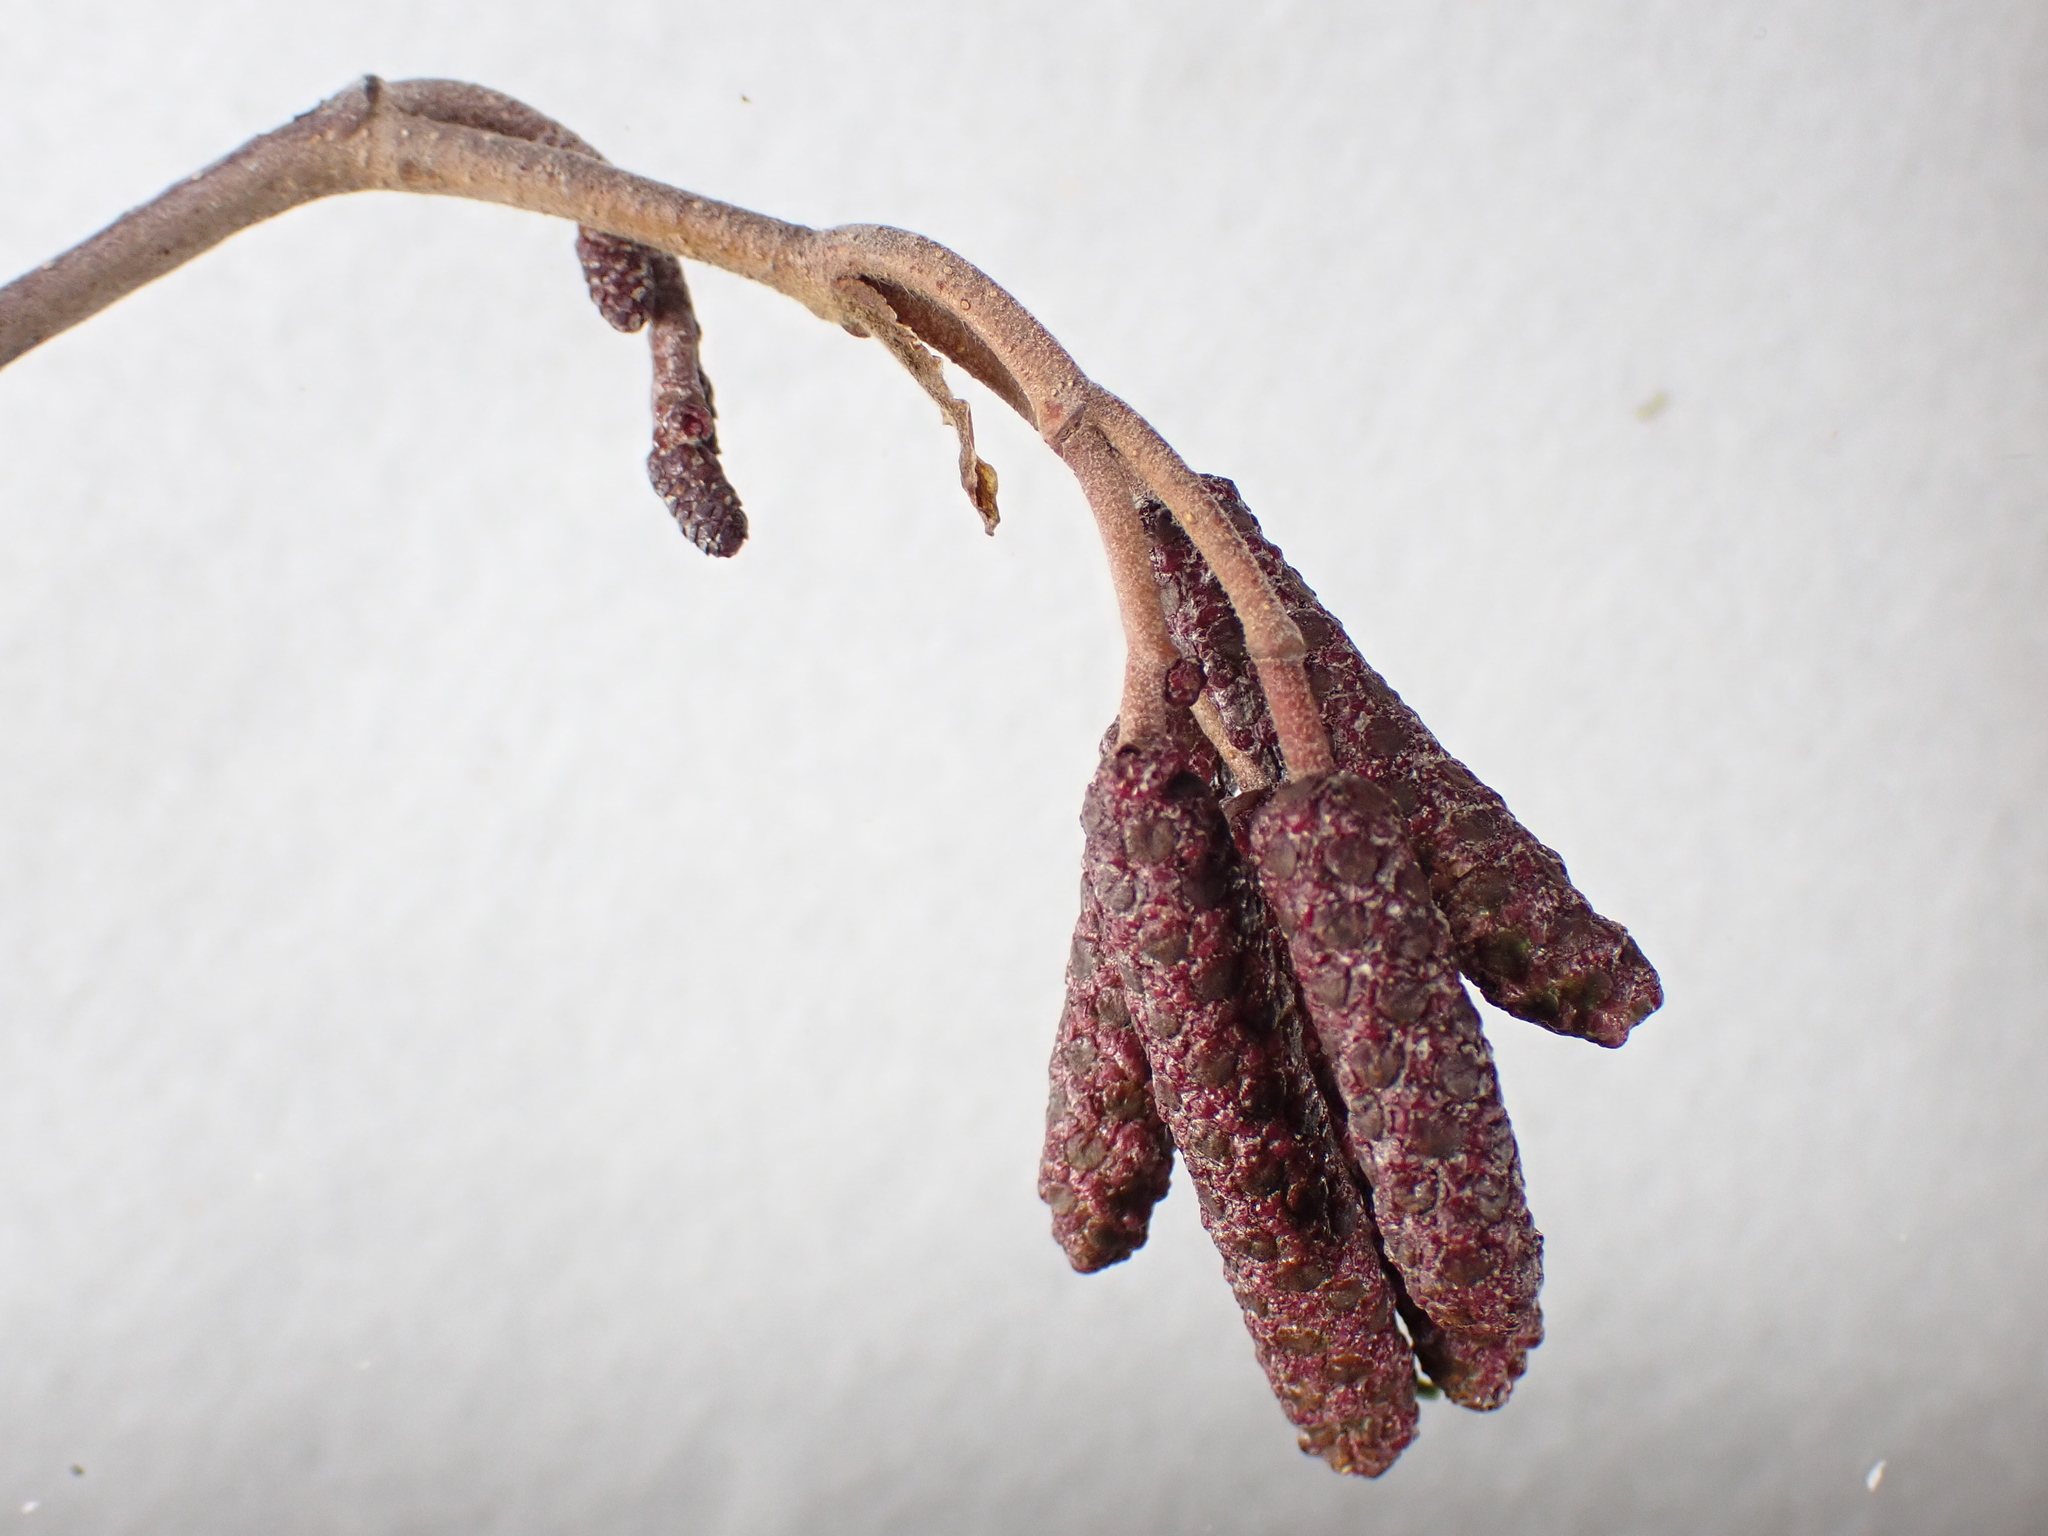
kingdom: Plantae
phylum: Tracheophyta
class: Magnoliopsida
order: Fagales
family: Betulaceae
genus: Alnus
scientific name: Alnus incana
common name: Grey alder
